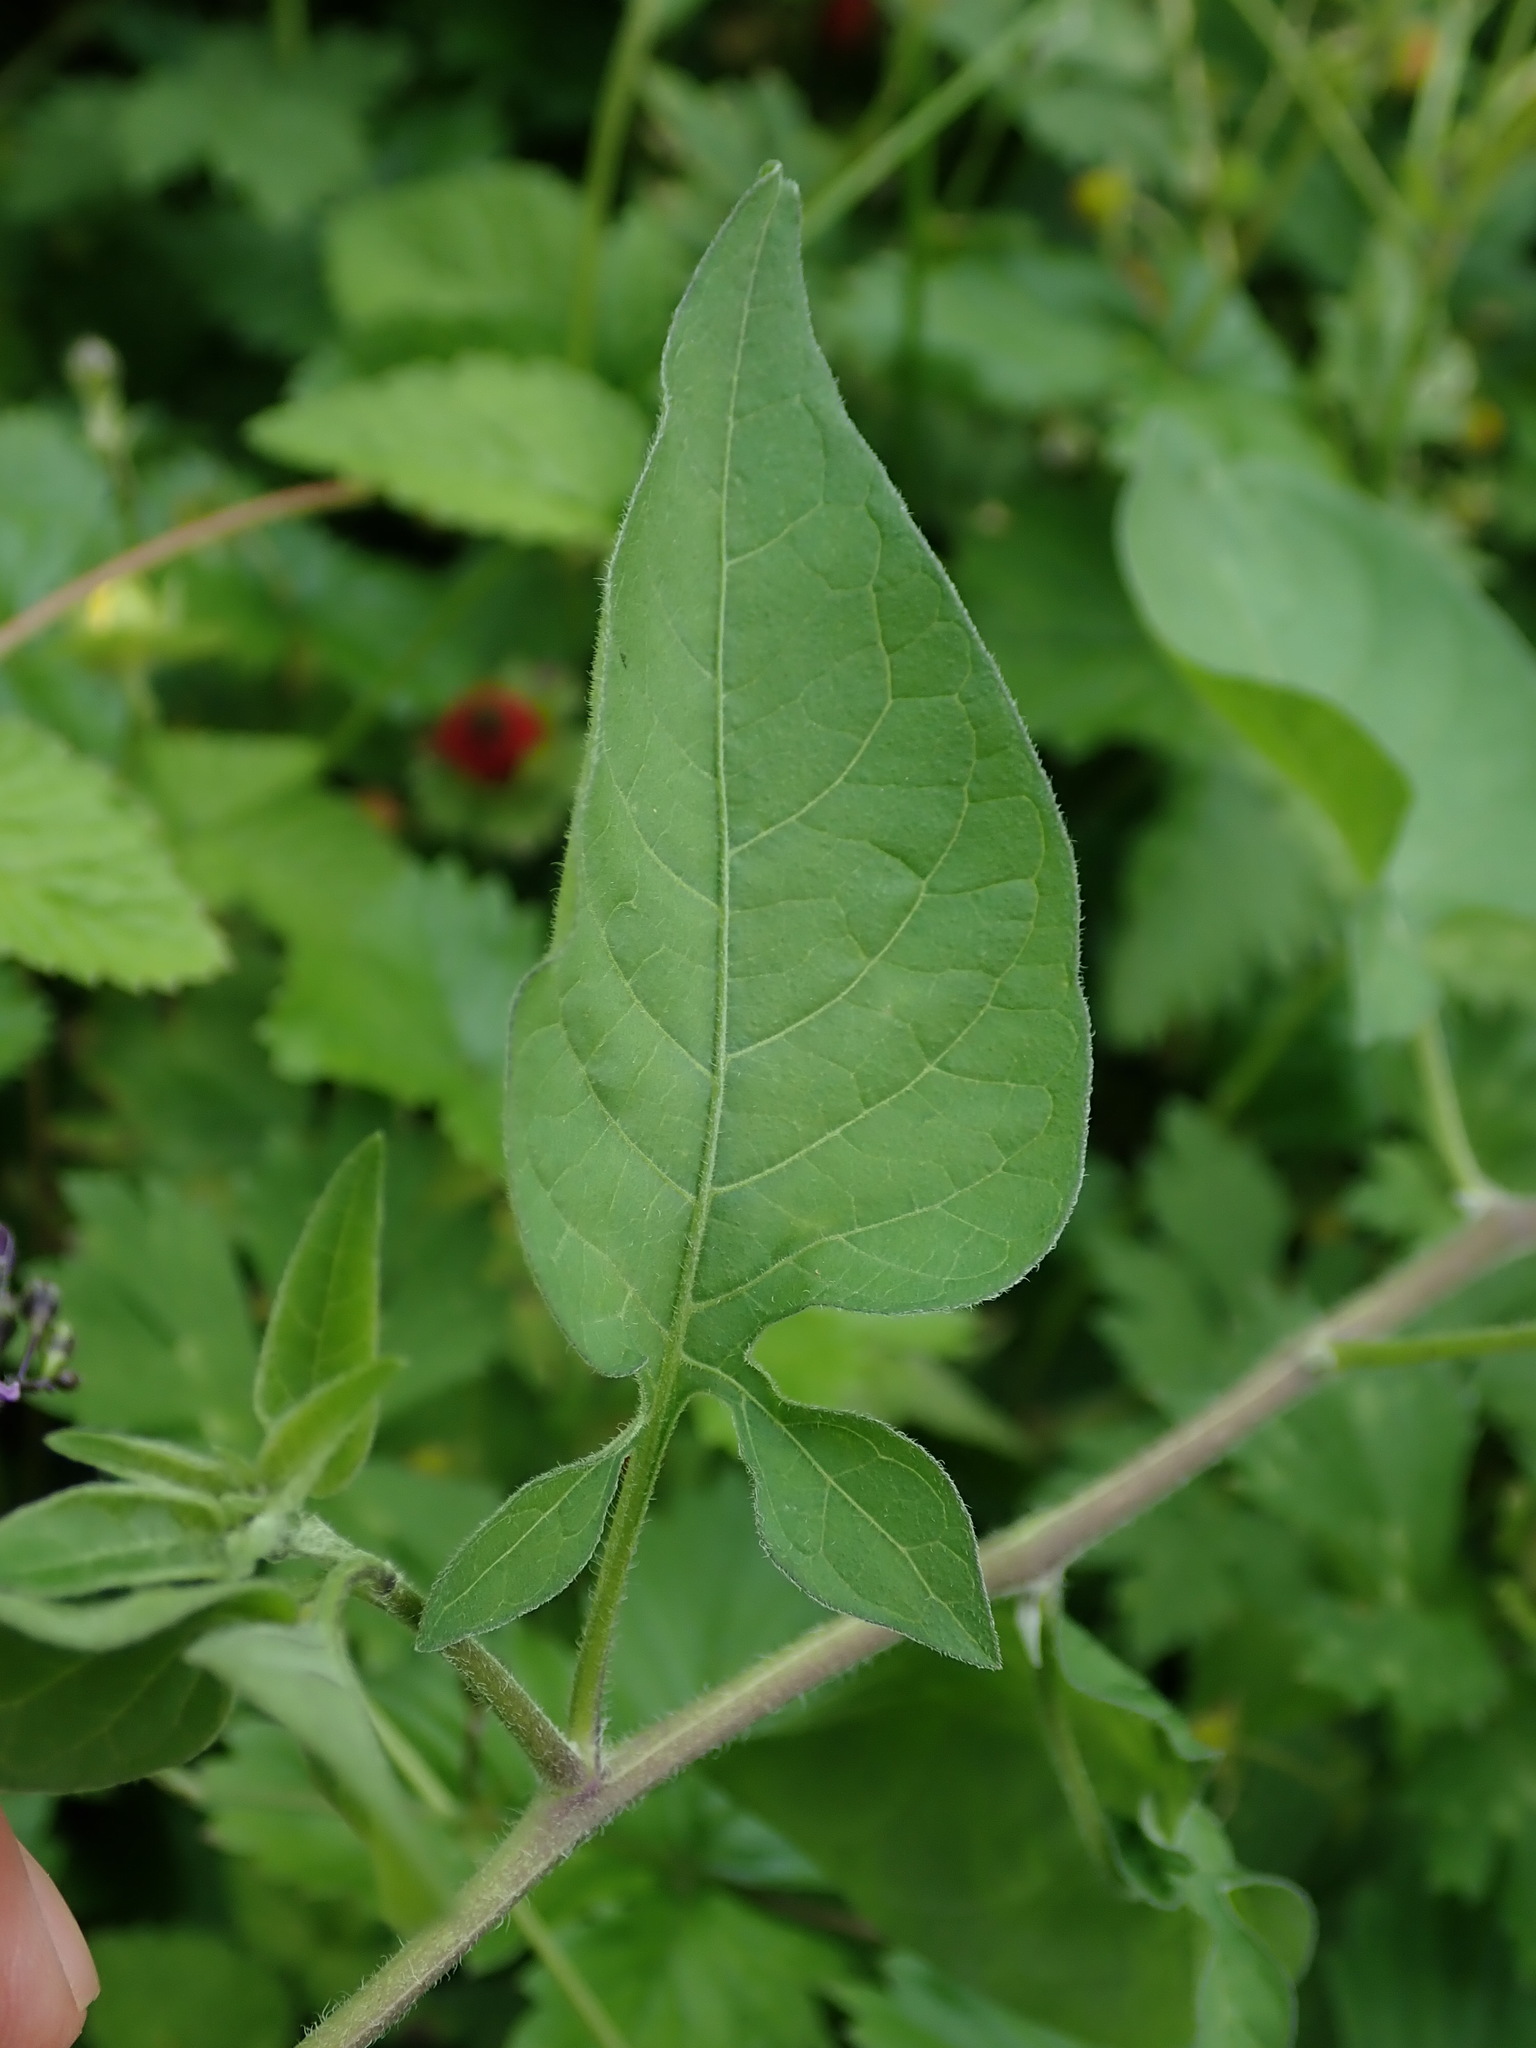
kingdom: Plantae
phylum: Tracheophyta
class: Magnoliopsida
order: Solanales
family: Solanaceae
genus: Solanum
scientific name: Solanum dulcamara
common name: Climbing nightshade
